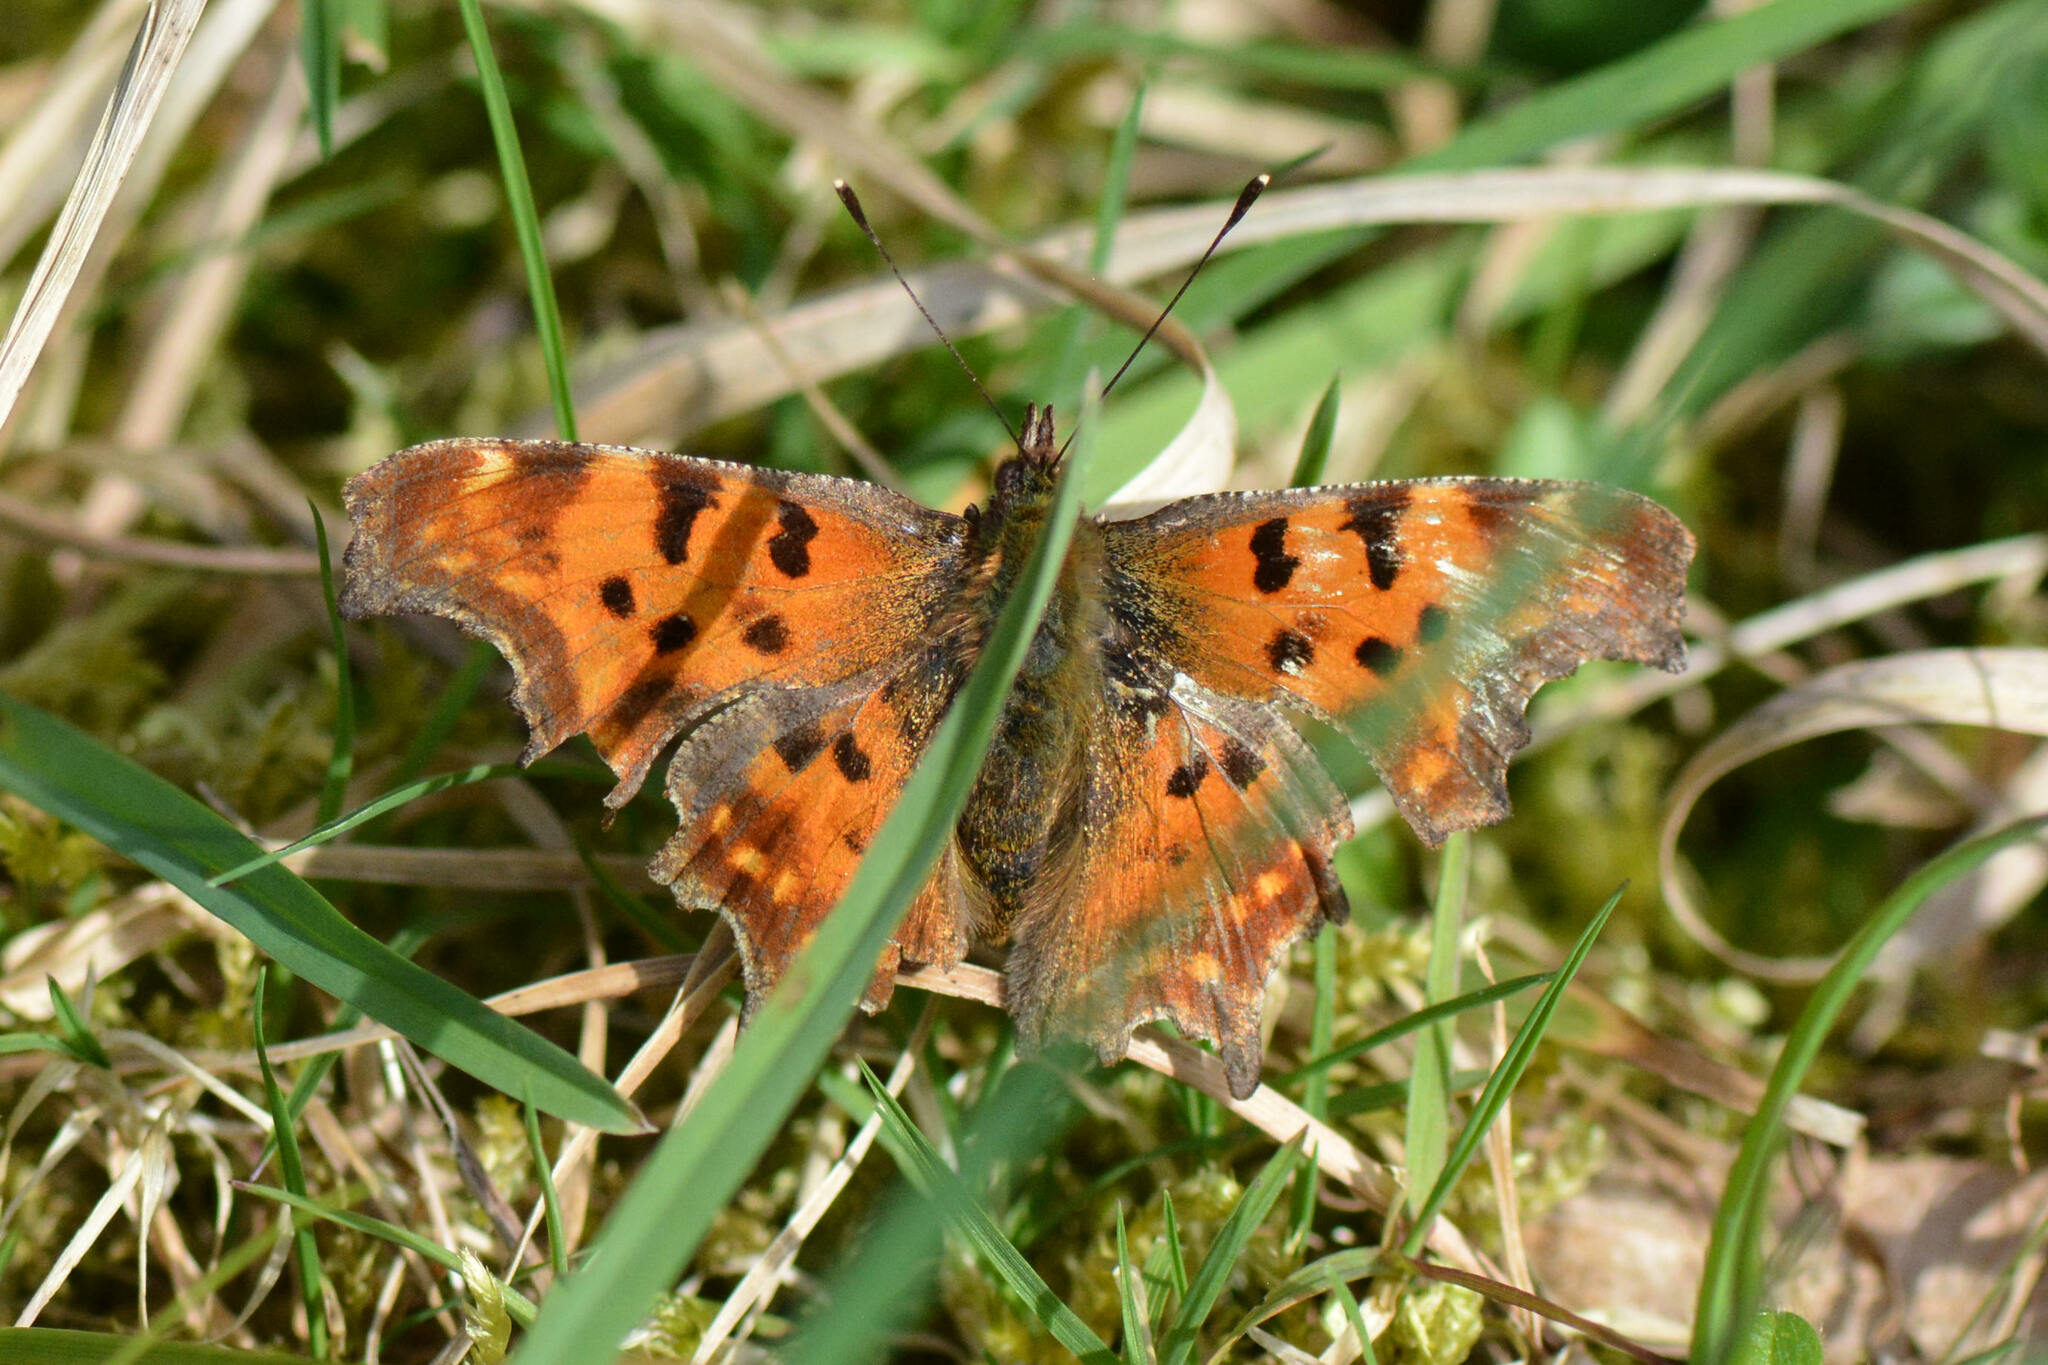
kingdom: Animalia
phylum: Arthropoda
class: Insecta
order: Lepidoptera
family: Nymphalidae
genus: Polygonia
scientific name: Polygonia c-album
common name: Comma
